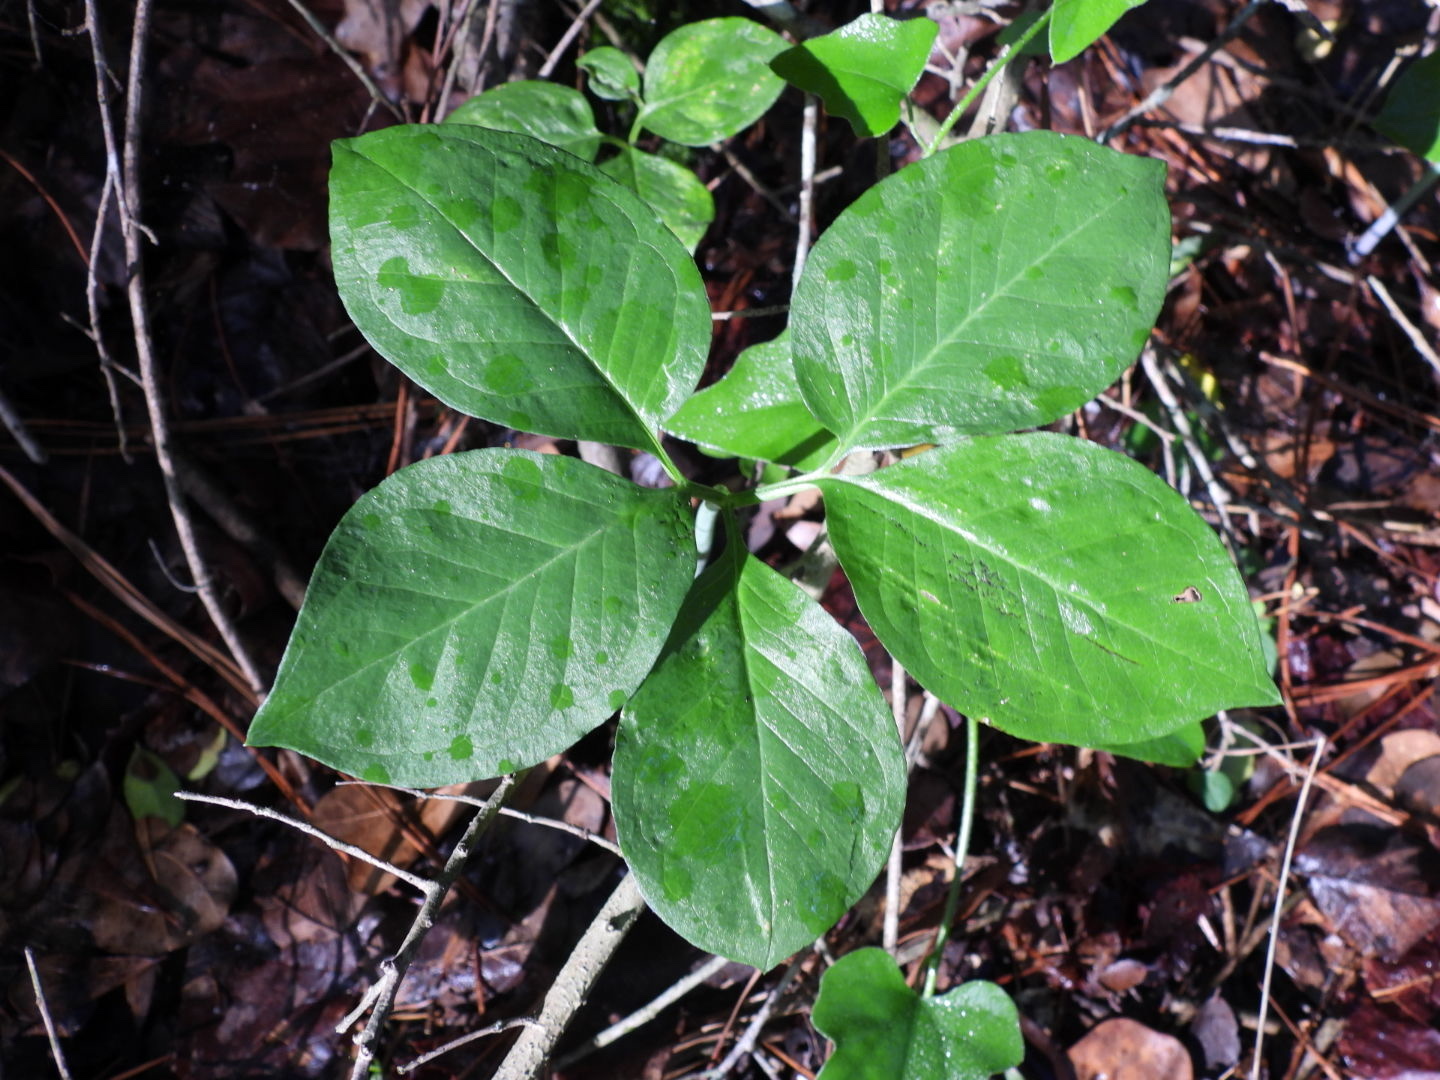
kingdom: Plantae
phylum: Tracheophyta
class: Liliopsida
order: Alismatales
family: Araceae
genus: Arisaema
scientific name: Arisaema dracontium
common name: Dragon-arum
